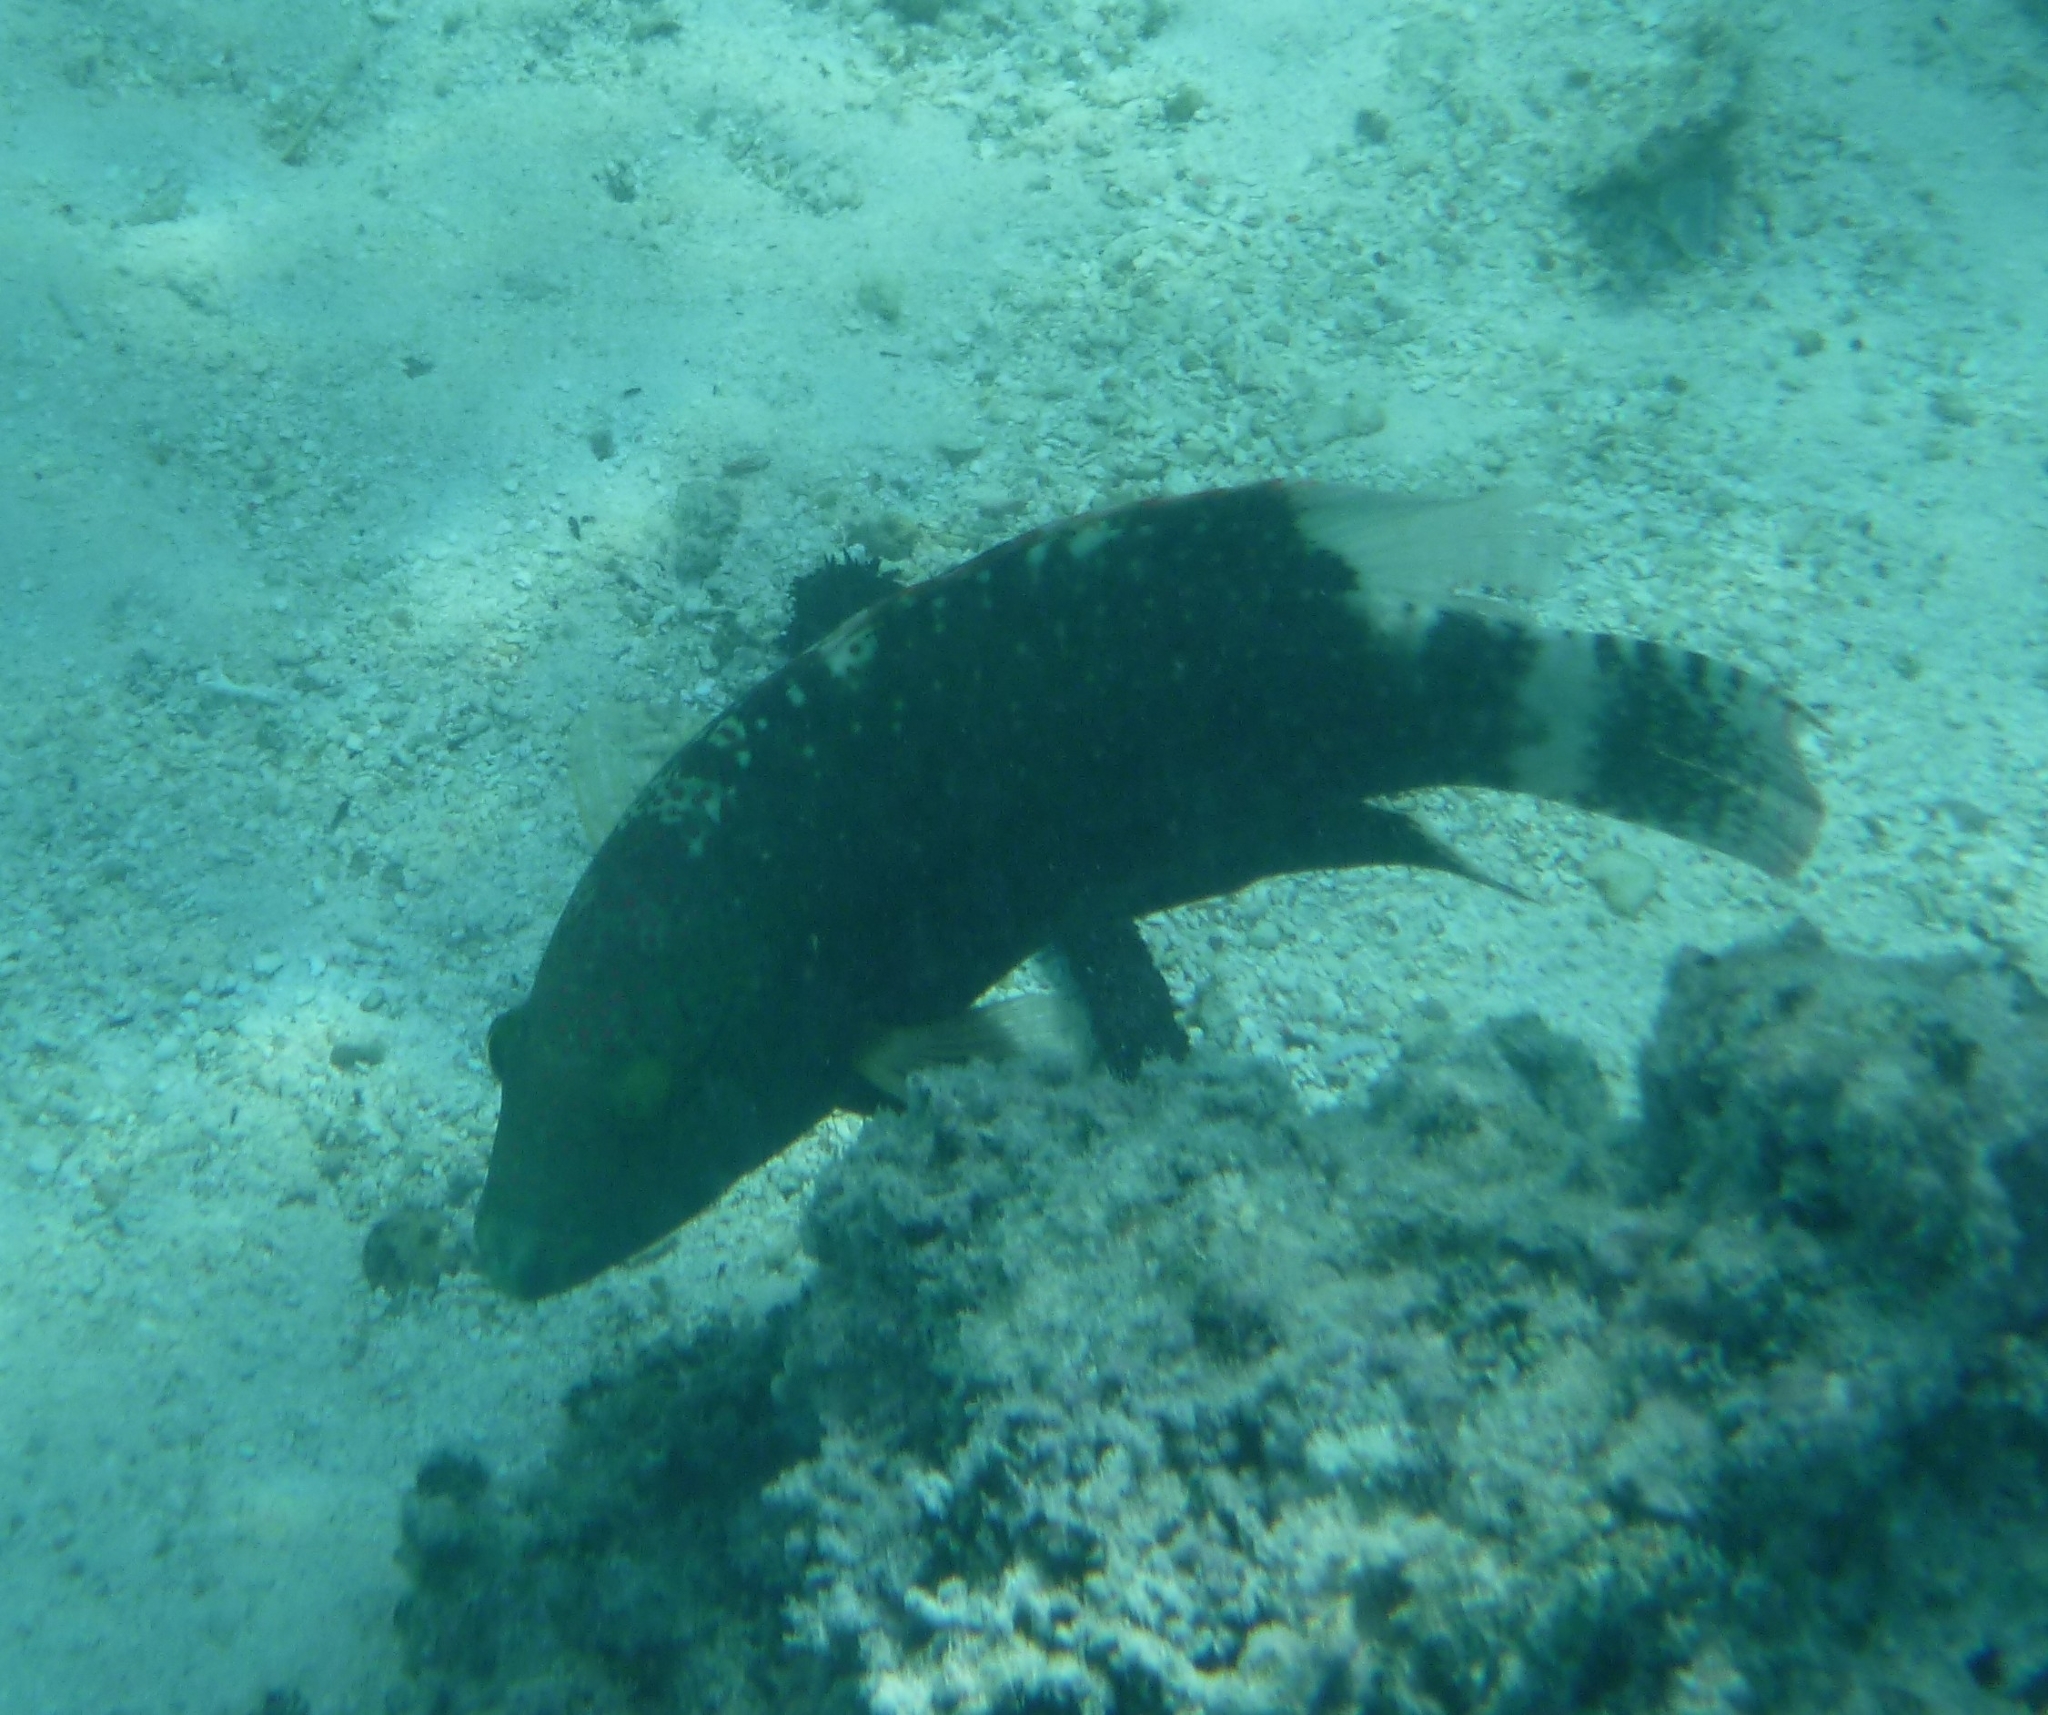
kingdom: Animalia
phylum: Chordata
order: Perciformes
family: Labridae
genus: Cheilinus
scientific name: Cheilinus chlorourus
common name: Floral wrasse
